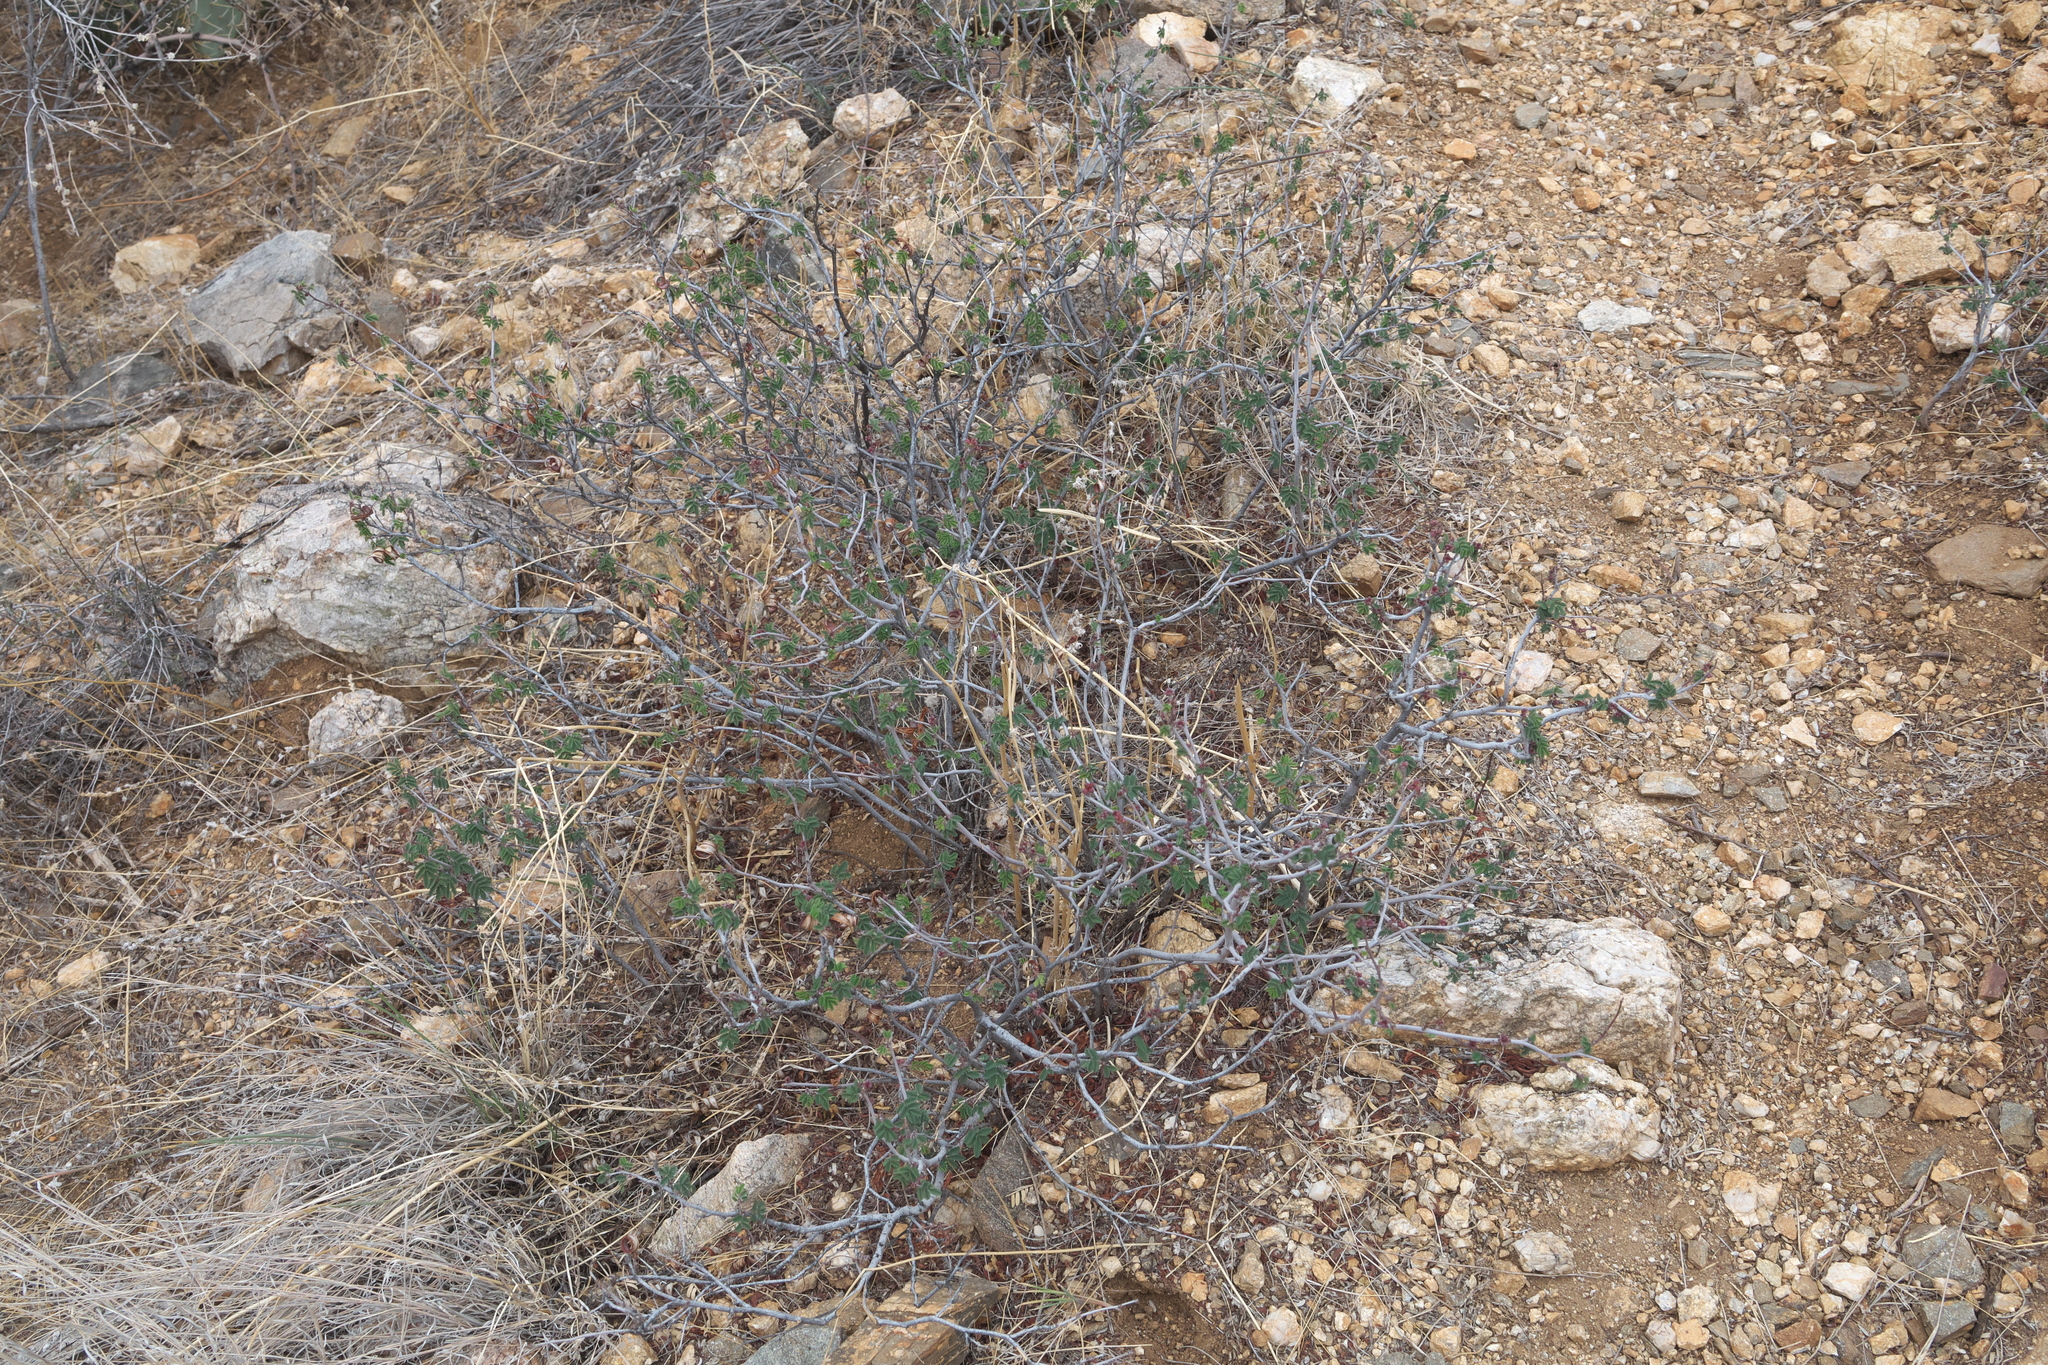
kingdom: Plantae
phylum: Tracheophyta
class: Magnoliopsida
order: Fabales
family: Fabaceae
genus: Calliandra
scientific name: Calliandra eriophylla
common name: Fairy-duster
